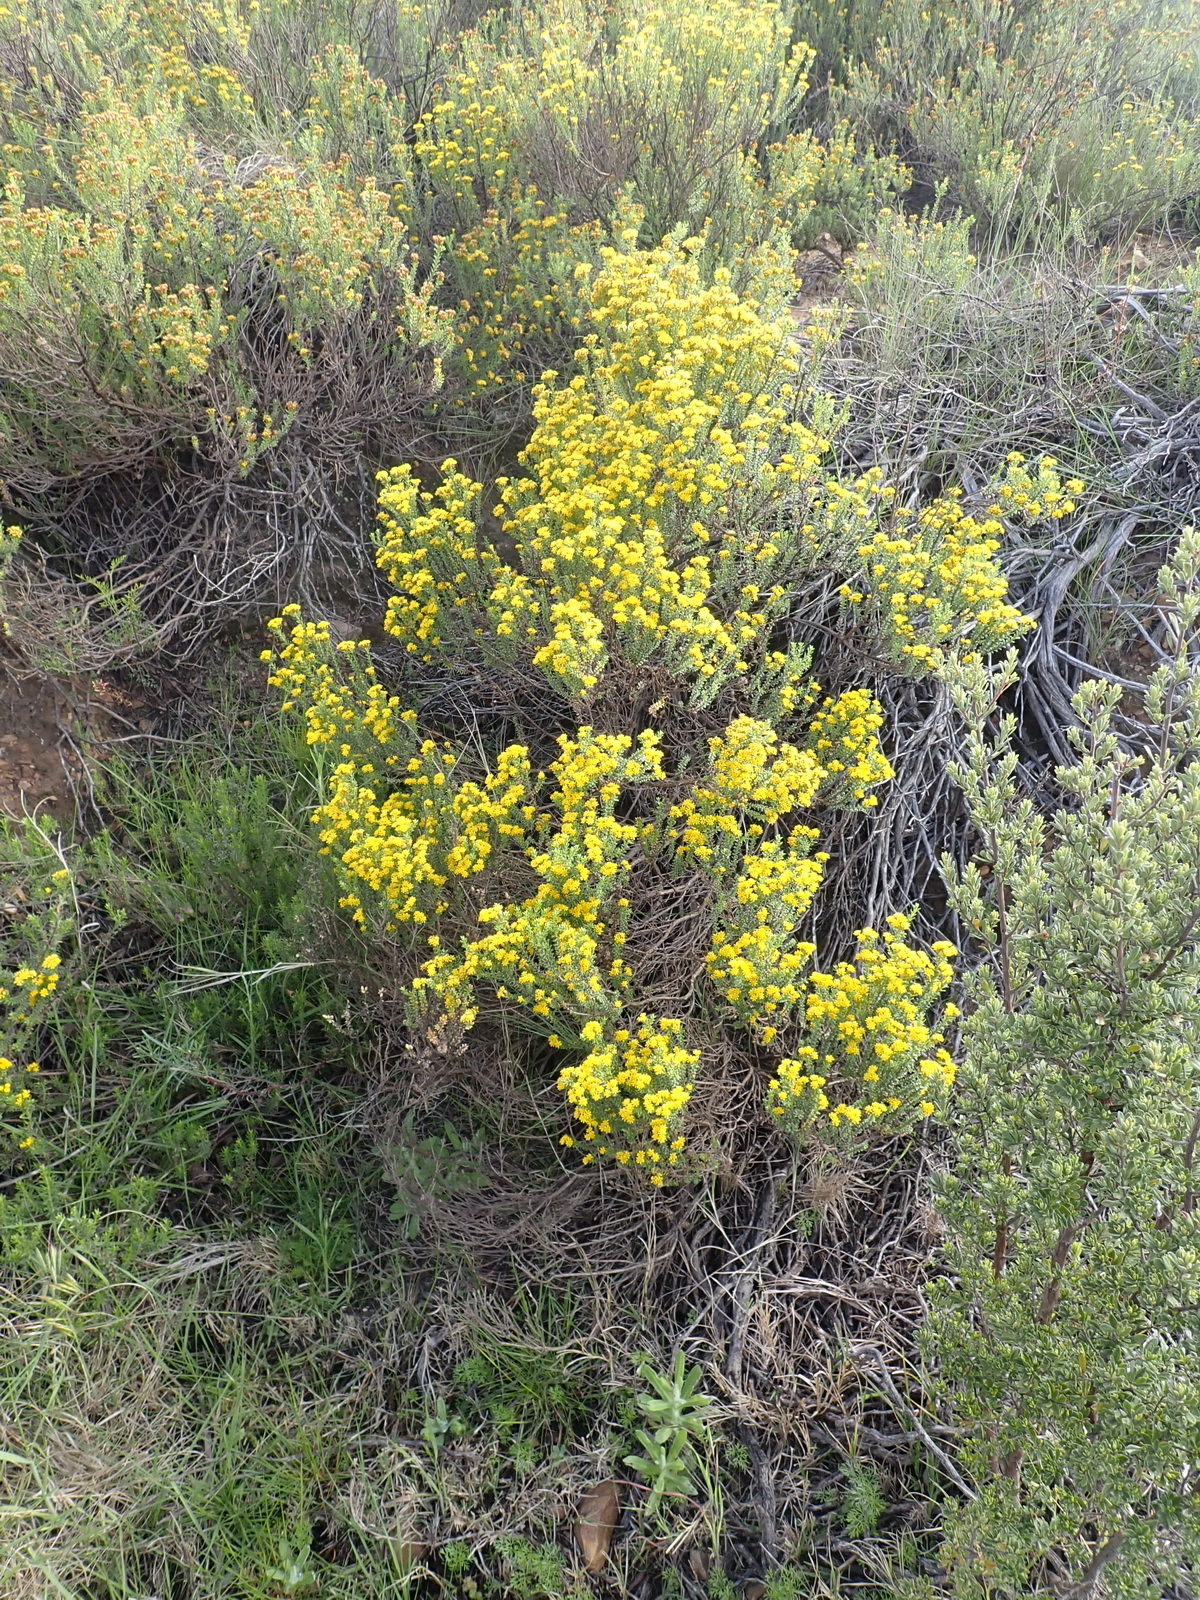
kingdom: Plantae
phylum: Tracheophyta
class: Magnoliopsida
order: Asterales
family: Asteraceae
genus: Oedera
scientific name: Oedera genistifolia
